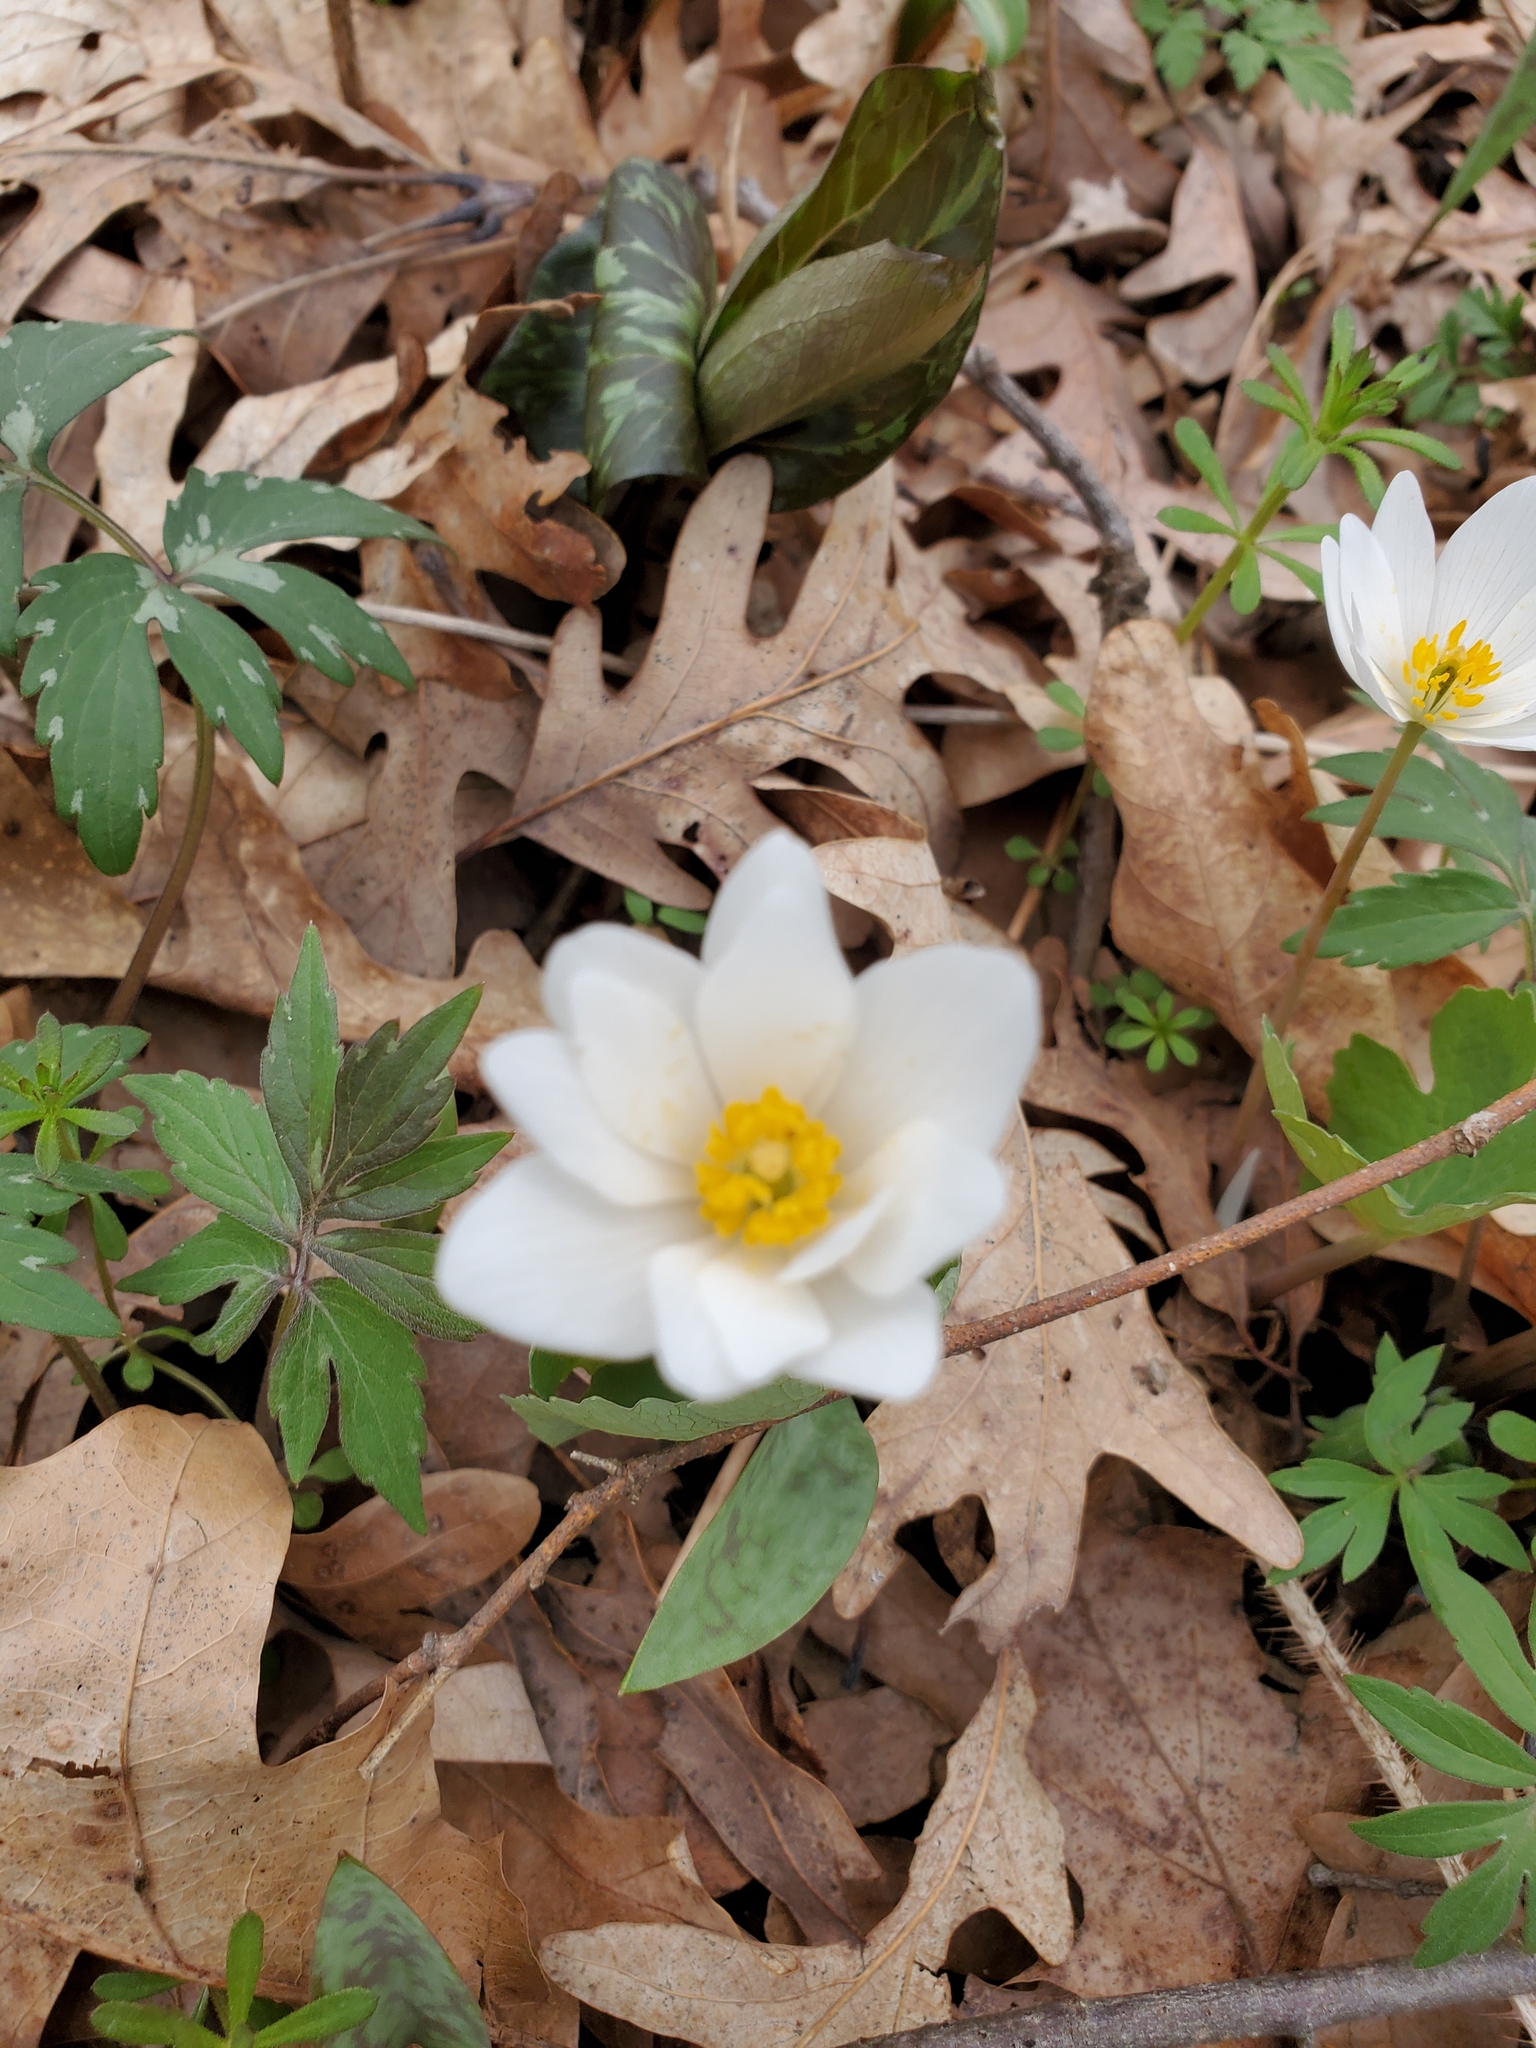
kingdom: Plantae
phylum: Tracheophyta
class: Magnoliopsida
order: Ranunculales
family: Papaveraceae
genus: Sanguinaria
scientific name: Sanguinaria canadensis
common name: Bloodroot
